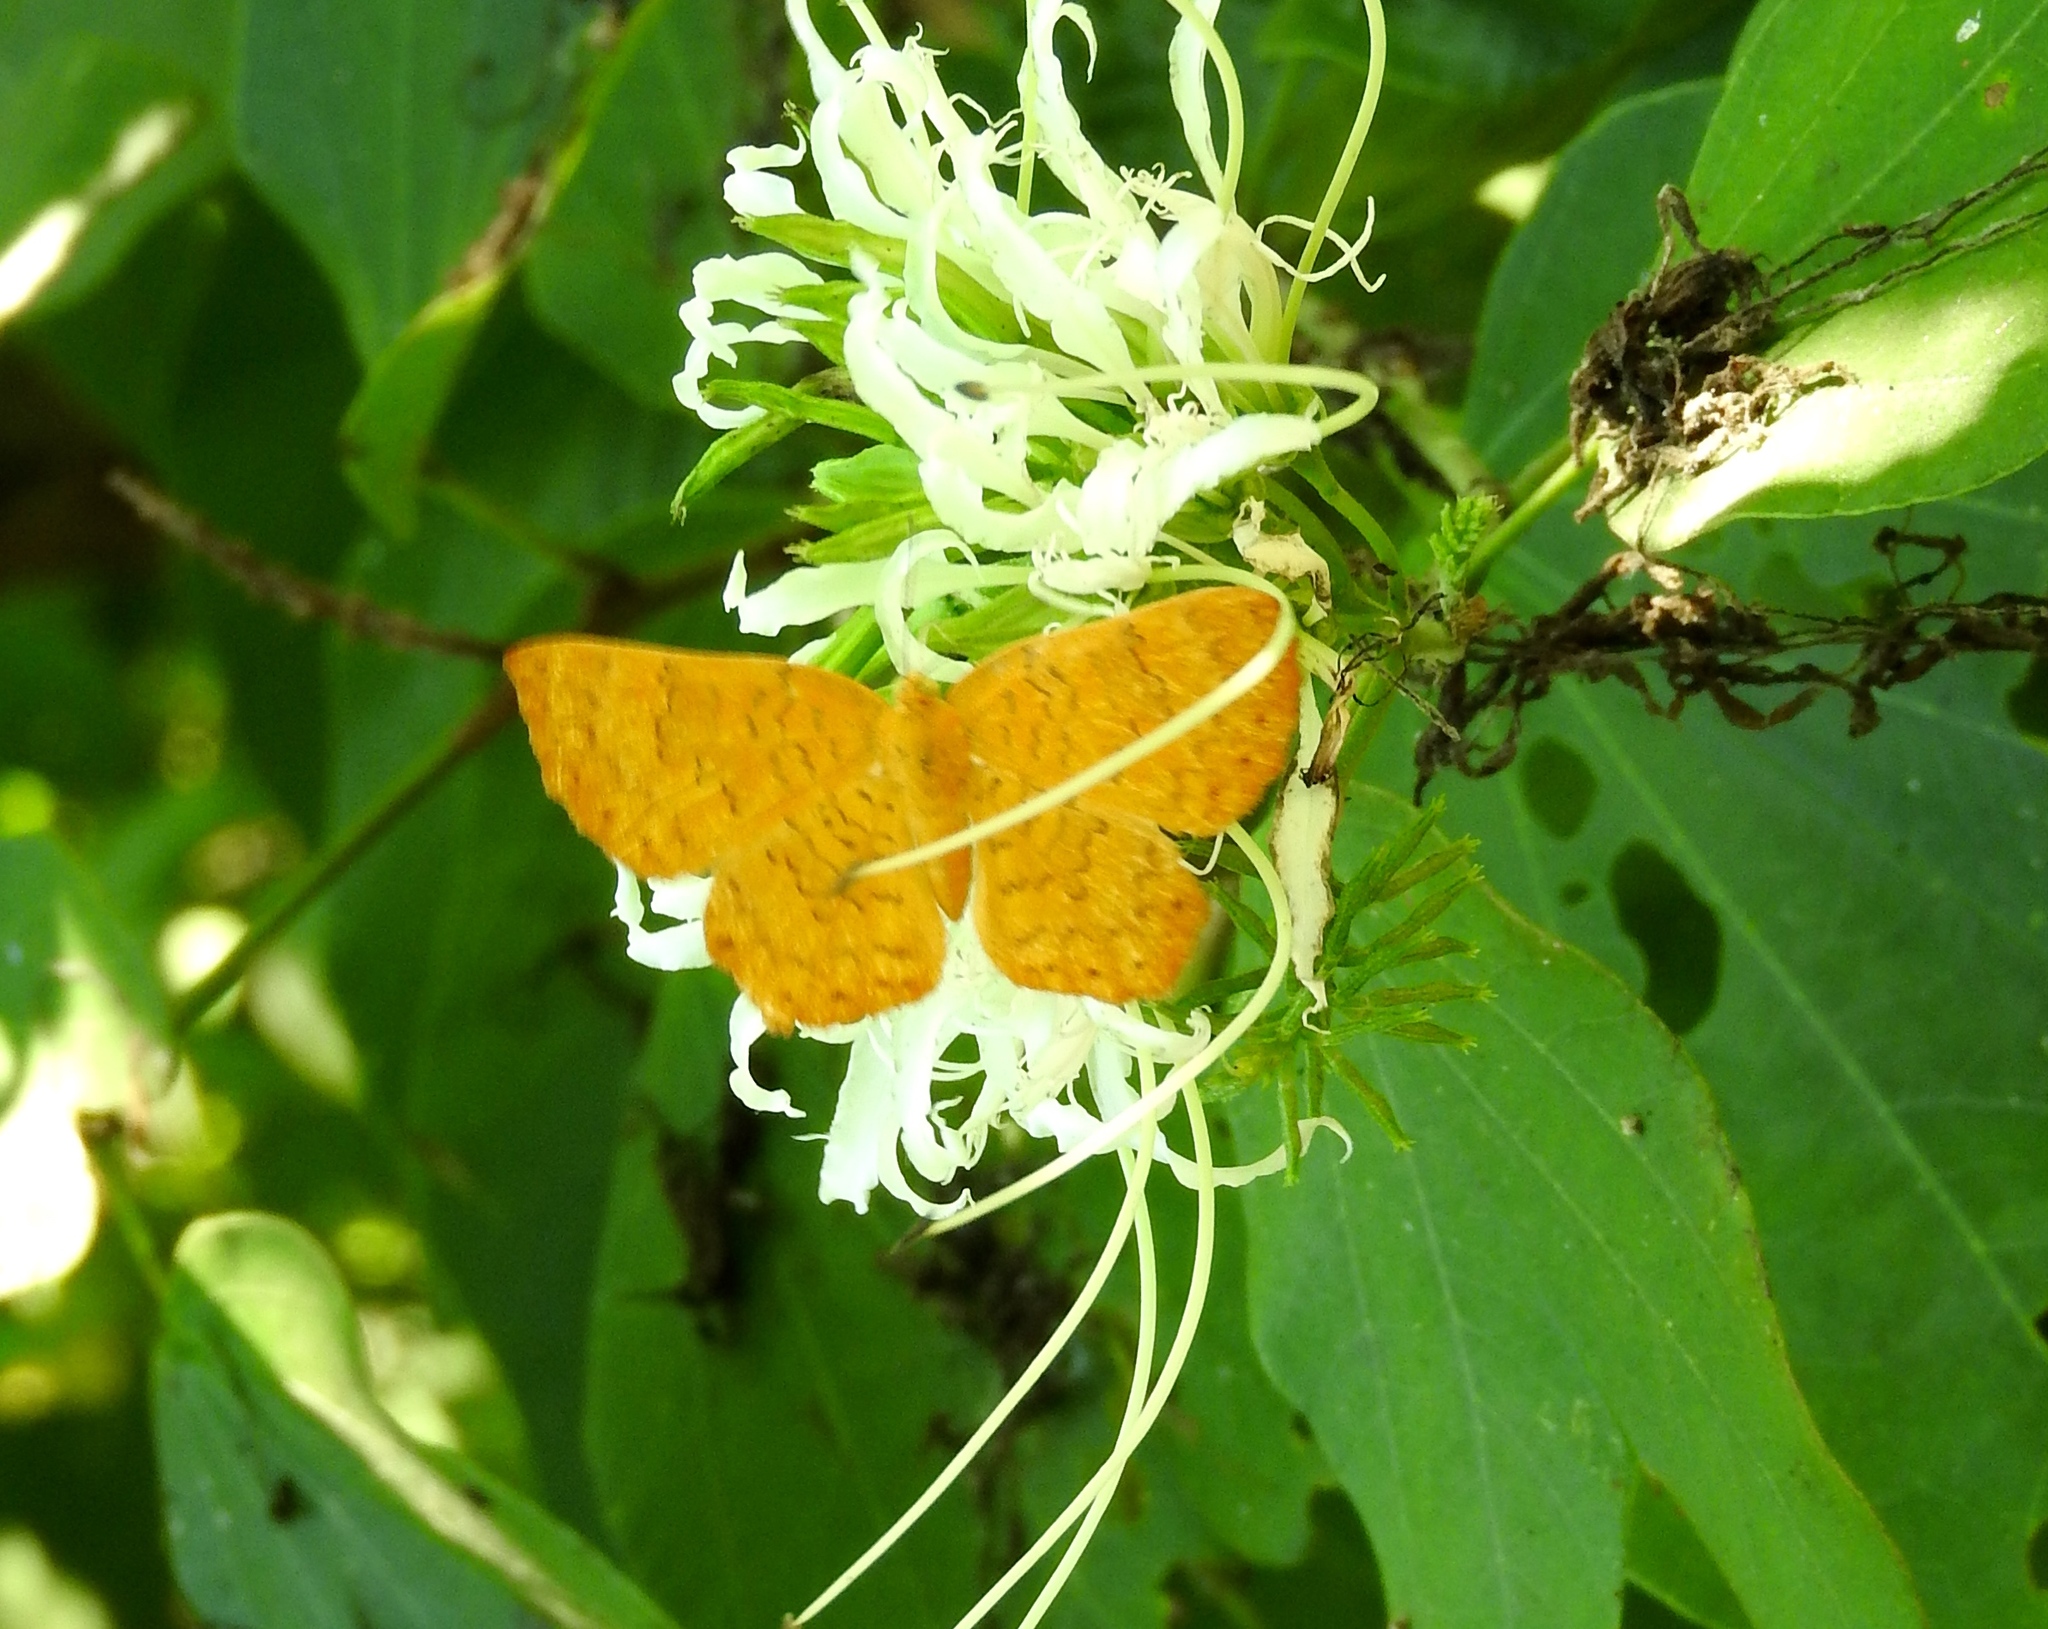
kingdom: Animalia
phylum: Arthropoda
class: Insecta
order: Lepidoptera
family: Lycaenidae
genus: Emesis
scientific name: Emesis
